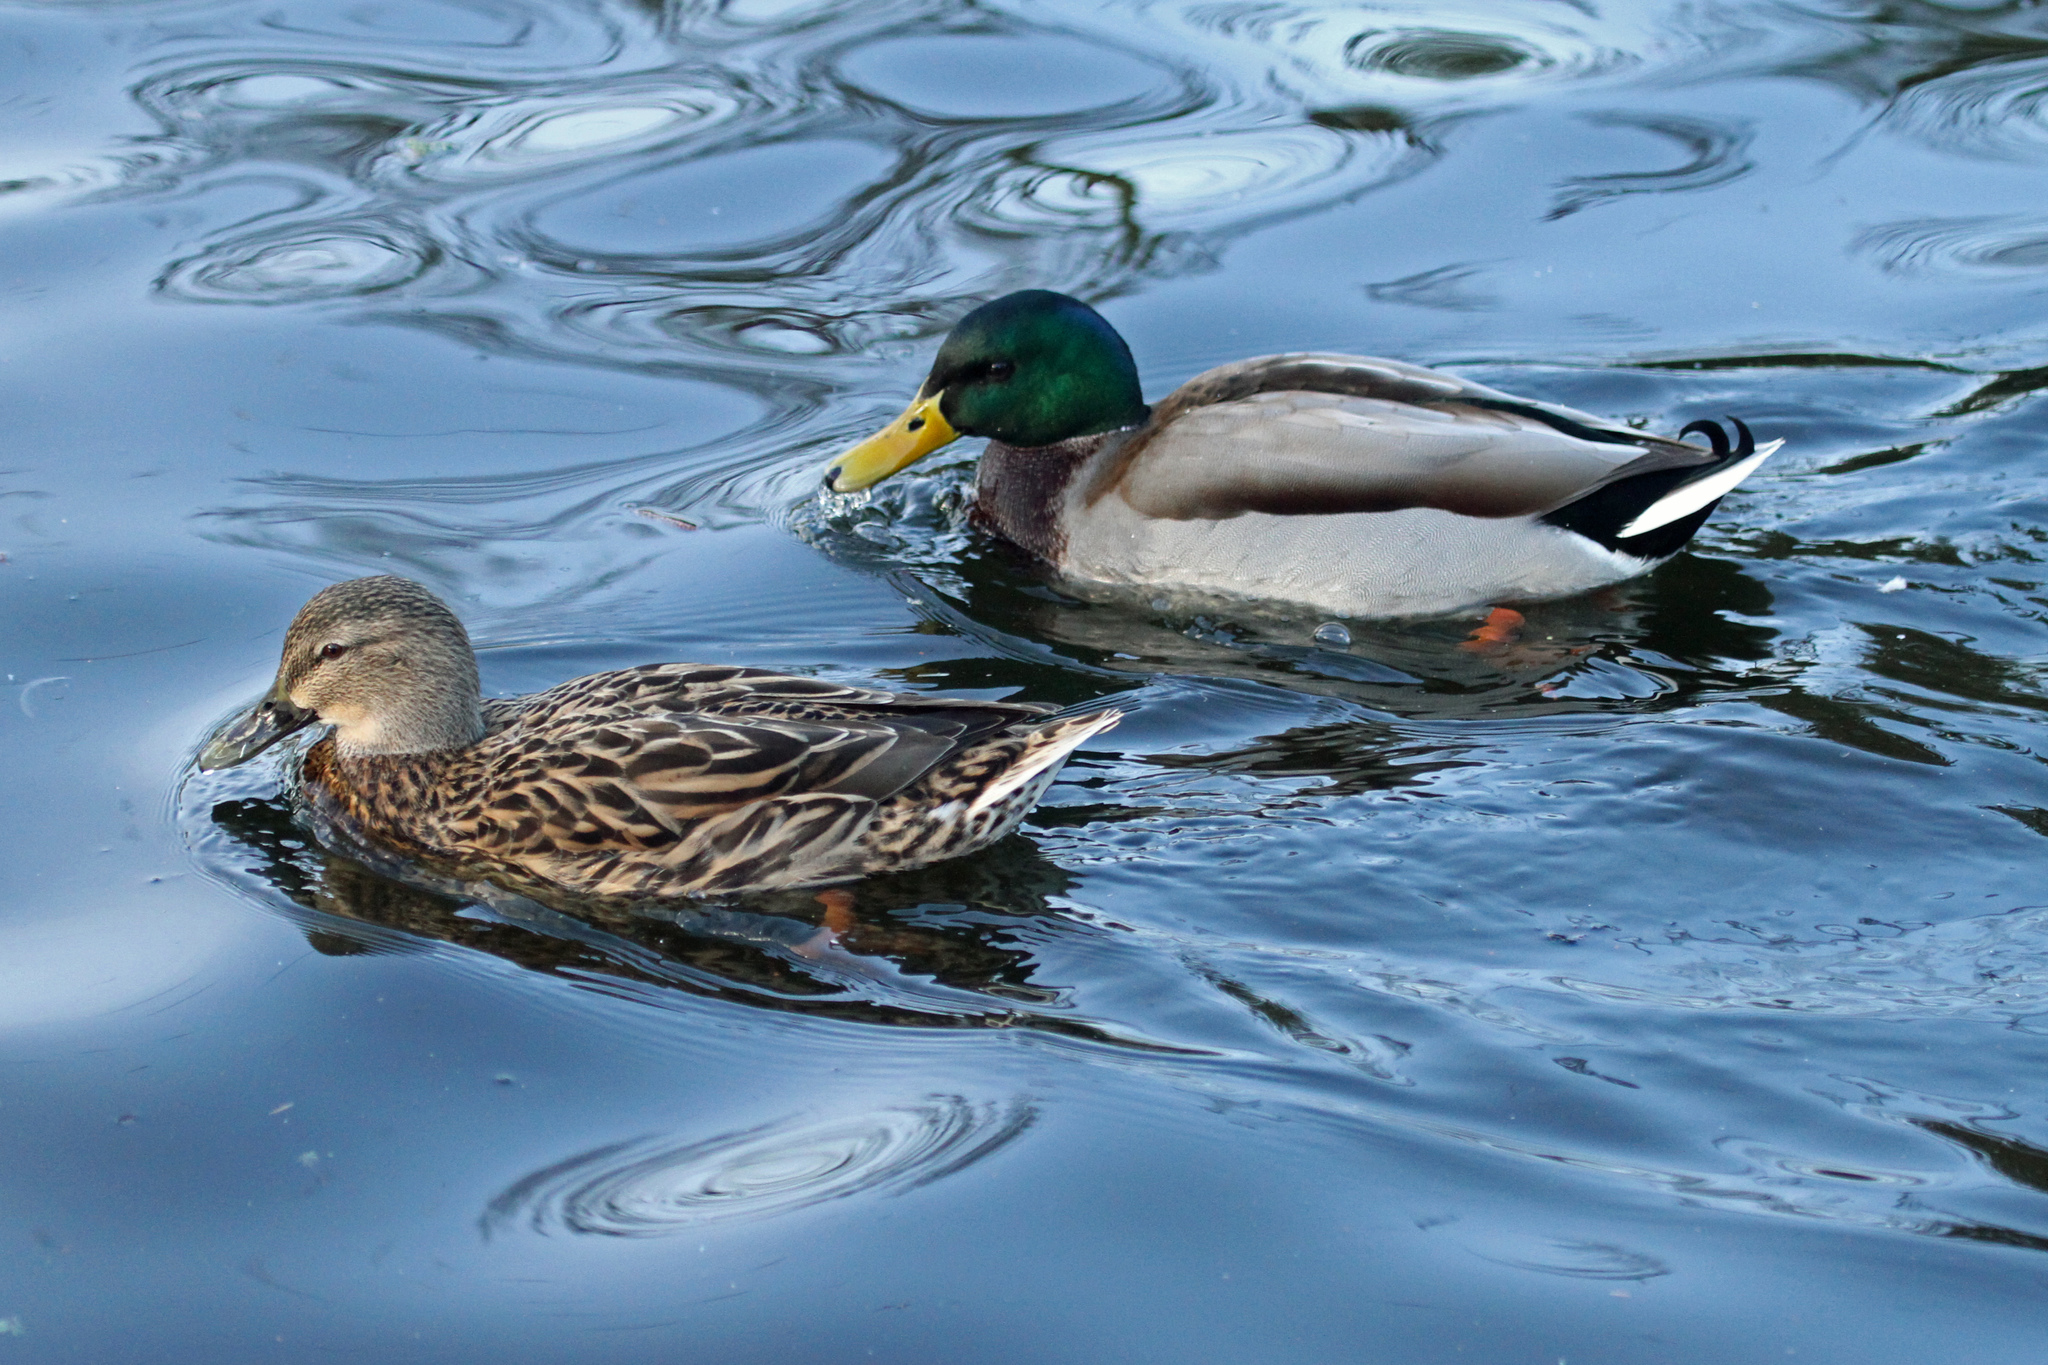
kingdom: Animalia
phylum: Chordata
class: Aves
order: Anseriformes
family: Anatidae
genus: Anas
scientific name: Anas platyrhynchos
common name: Mallard
